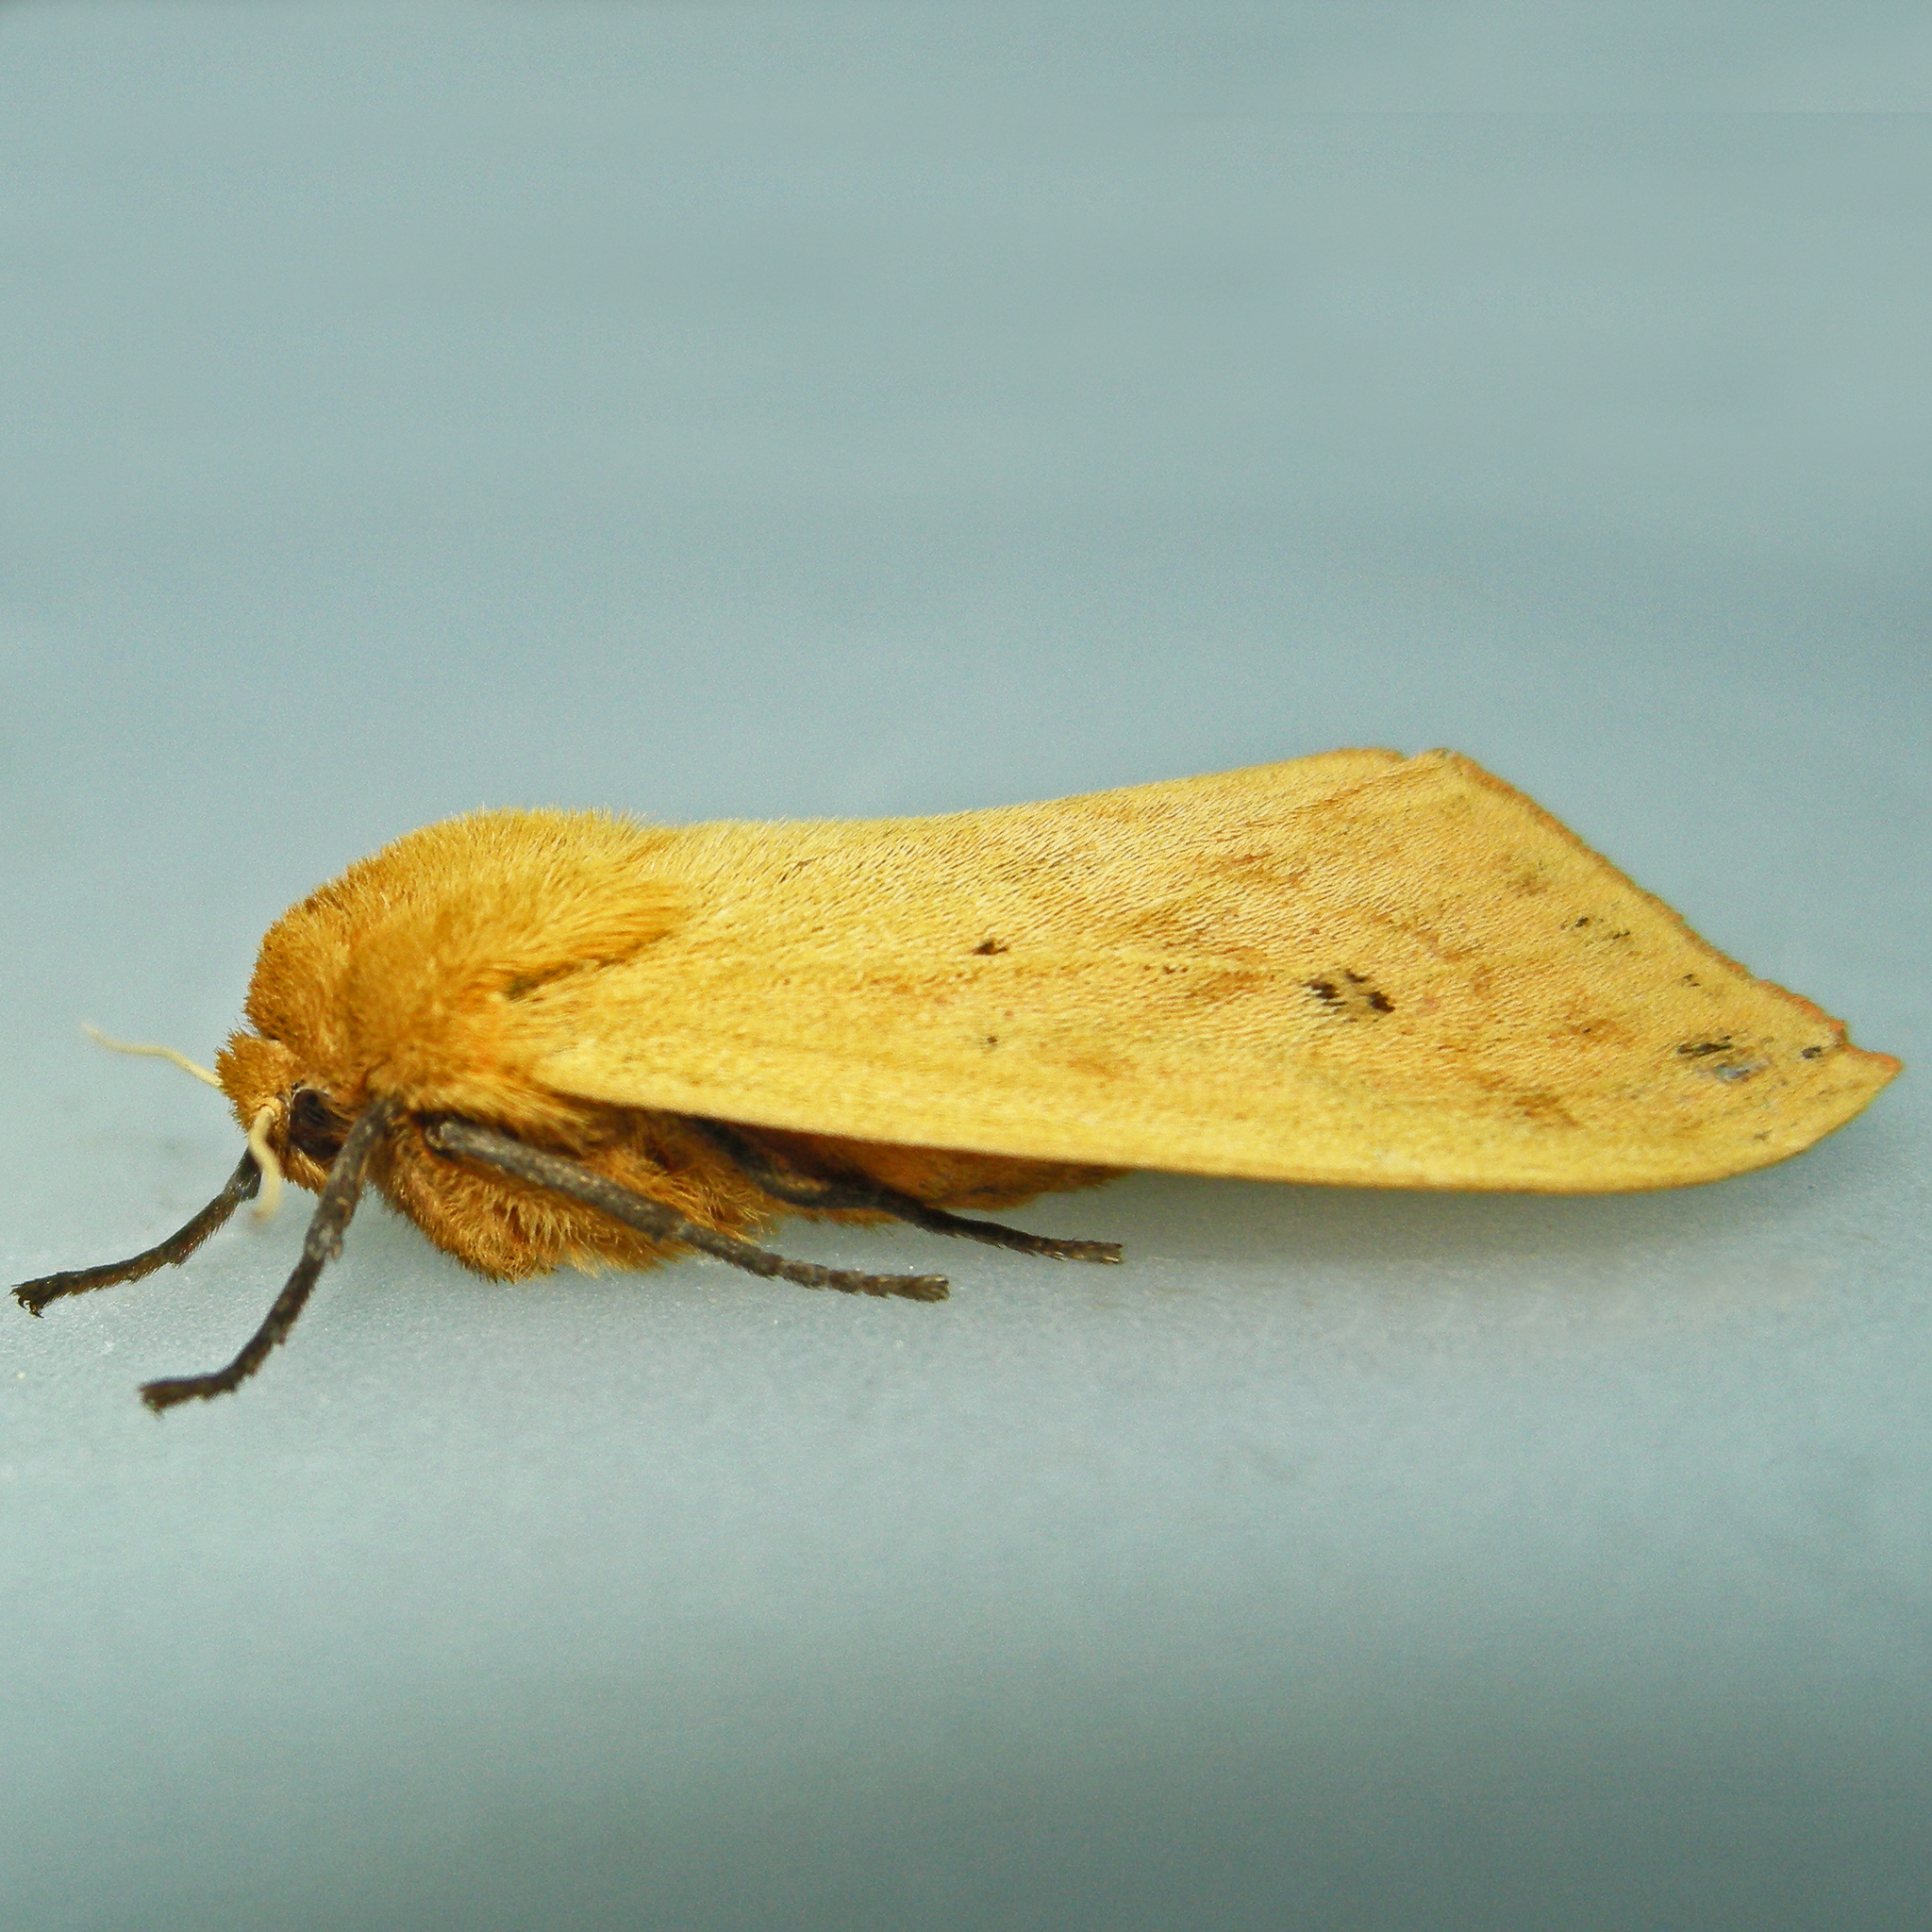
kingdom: Animalia
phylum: Arthropoda
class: Insecta
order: Lepidoptera
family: Erebidae
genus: Pyrrharctia
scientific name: Pyrrharctia isabella
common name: Isabella tiger moth
